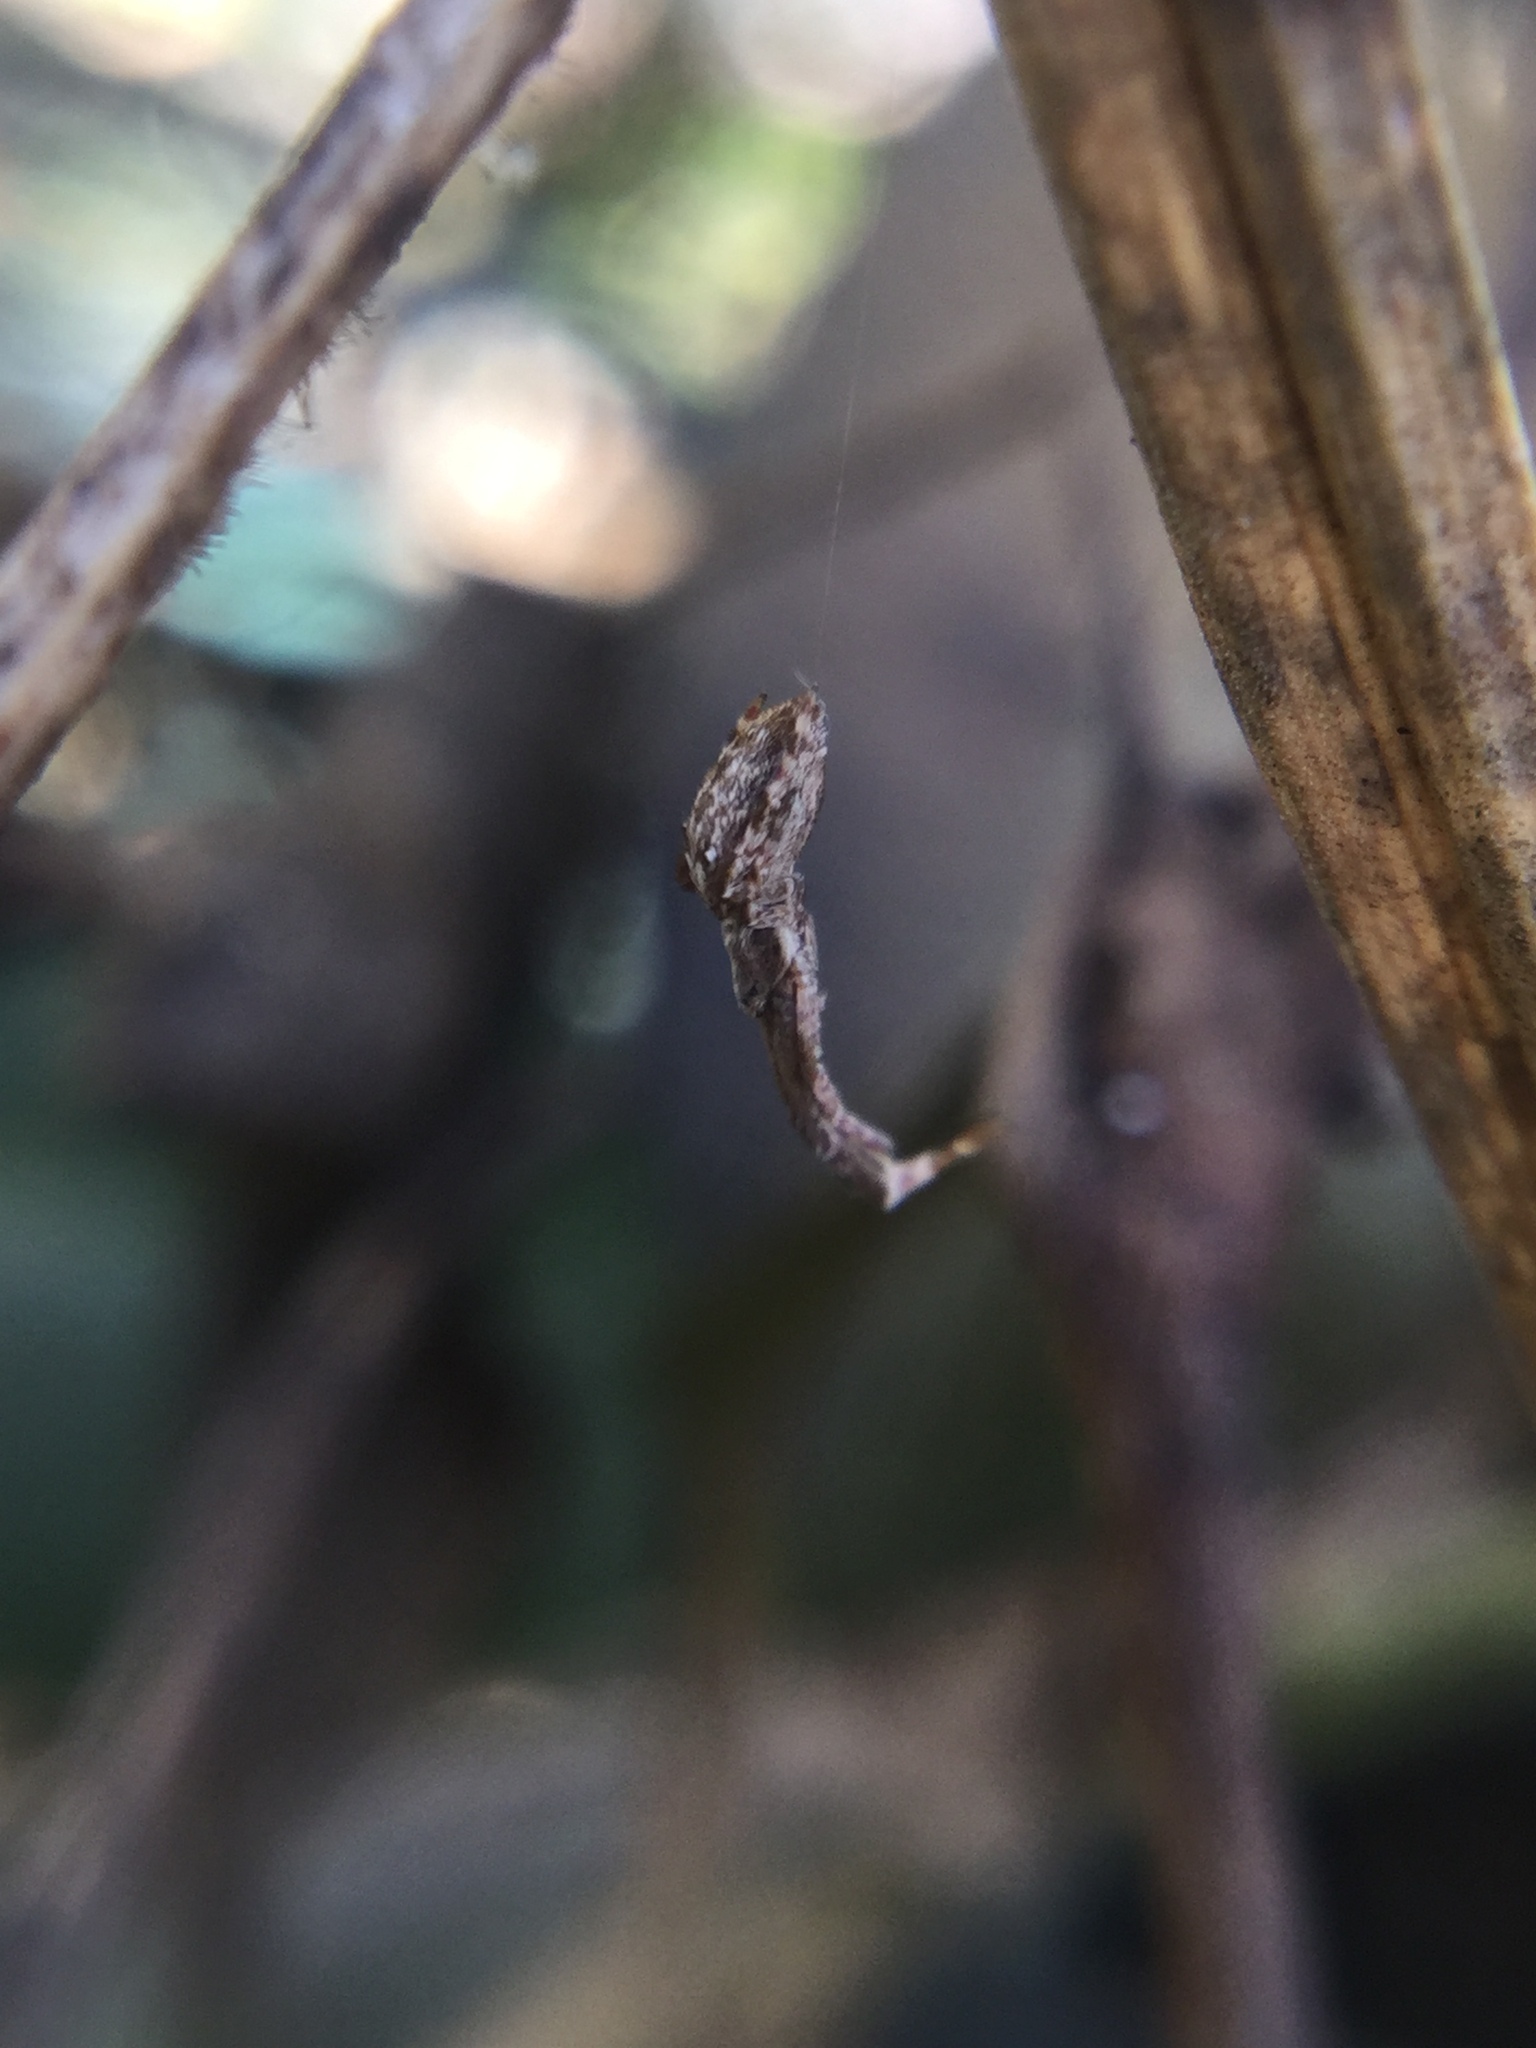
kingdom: Animalia
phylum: Arthropoda
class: Arachnida
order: Araneae
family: Uloboridae
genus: Uloborus
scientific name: Uloborus glomosus
